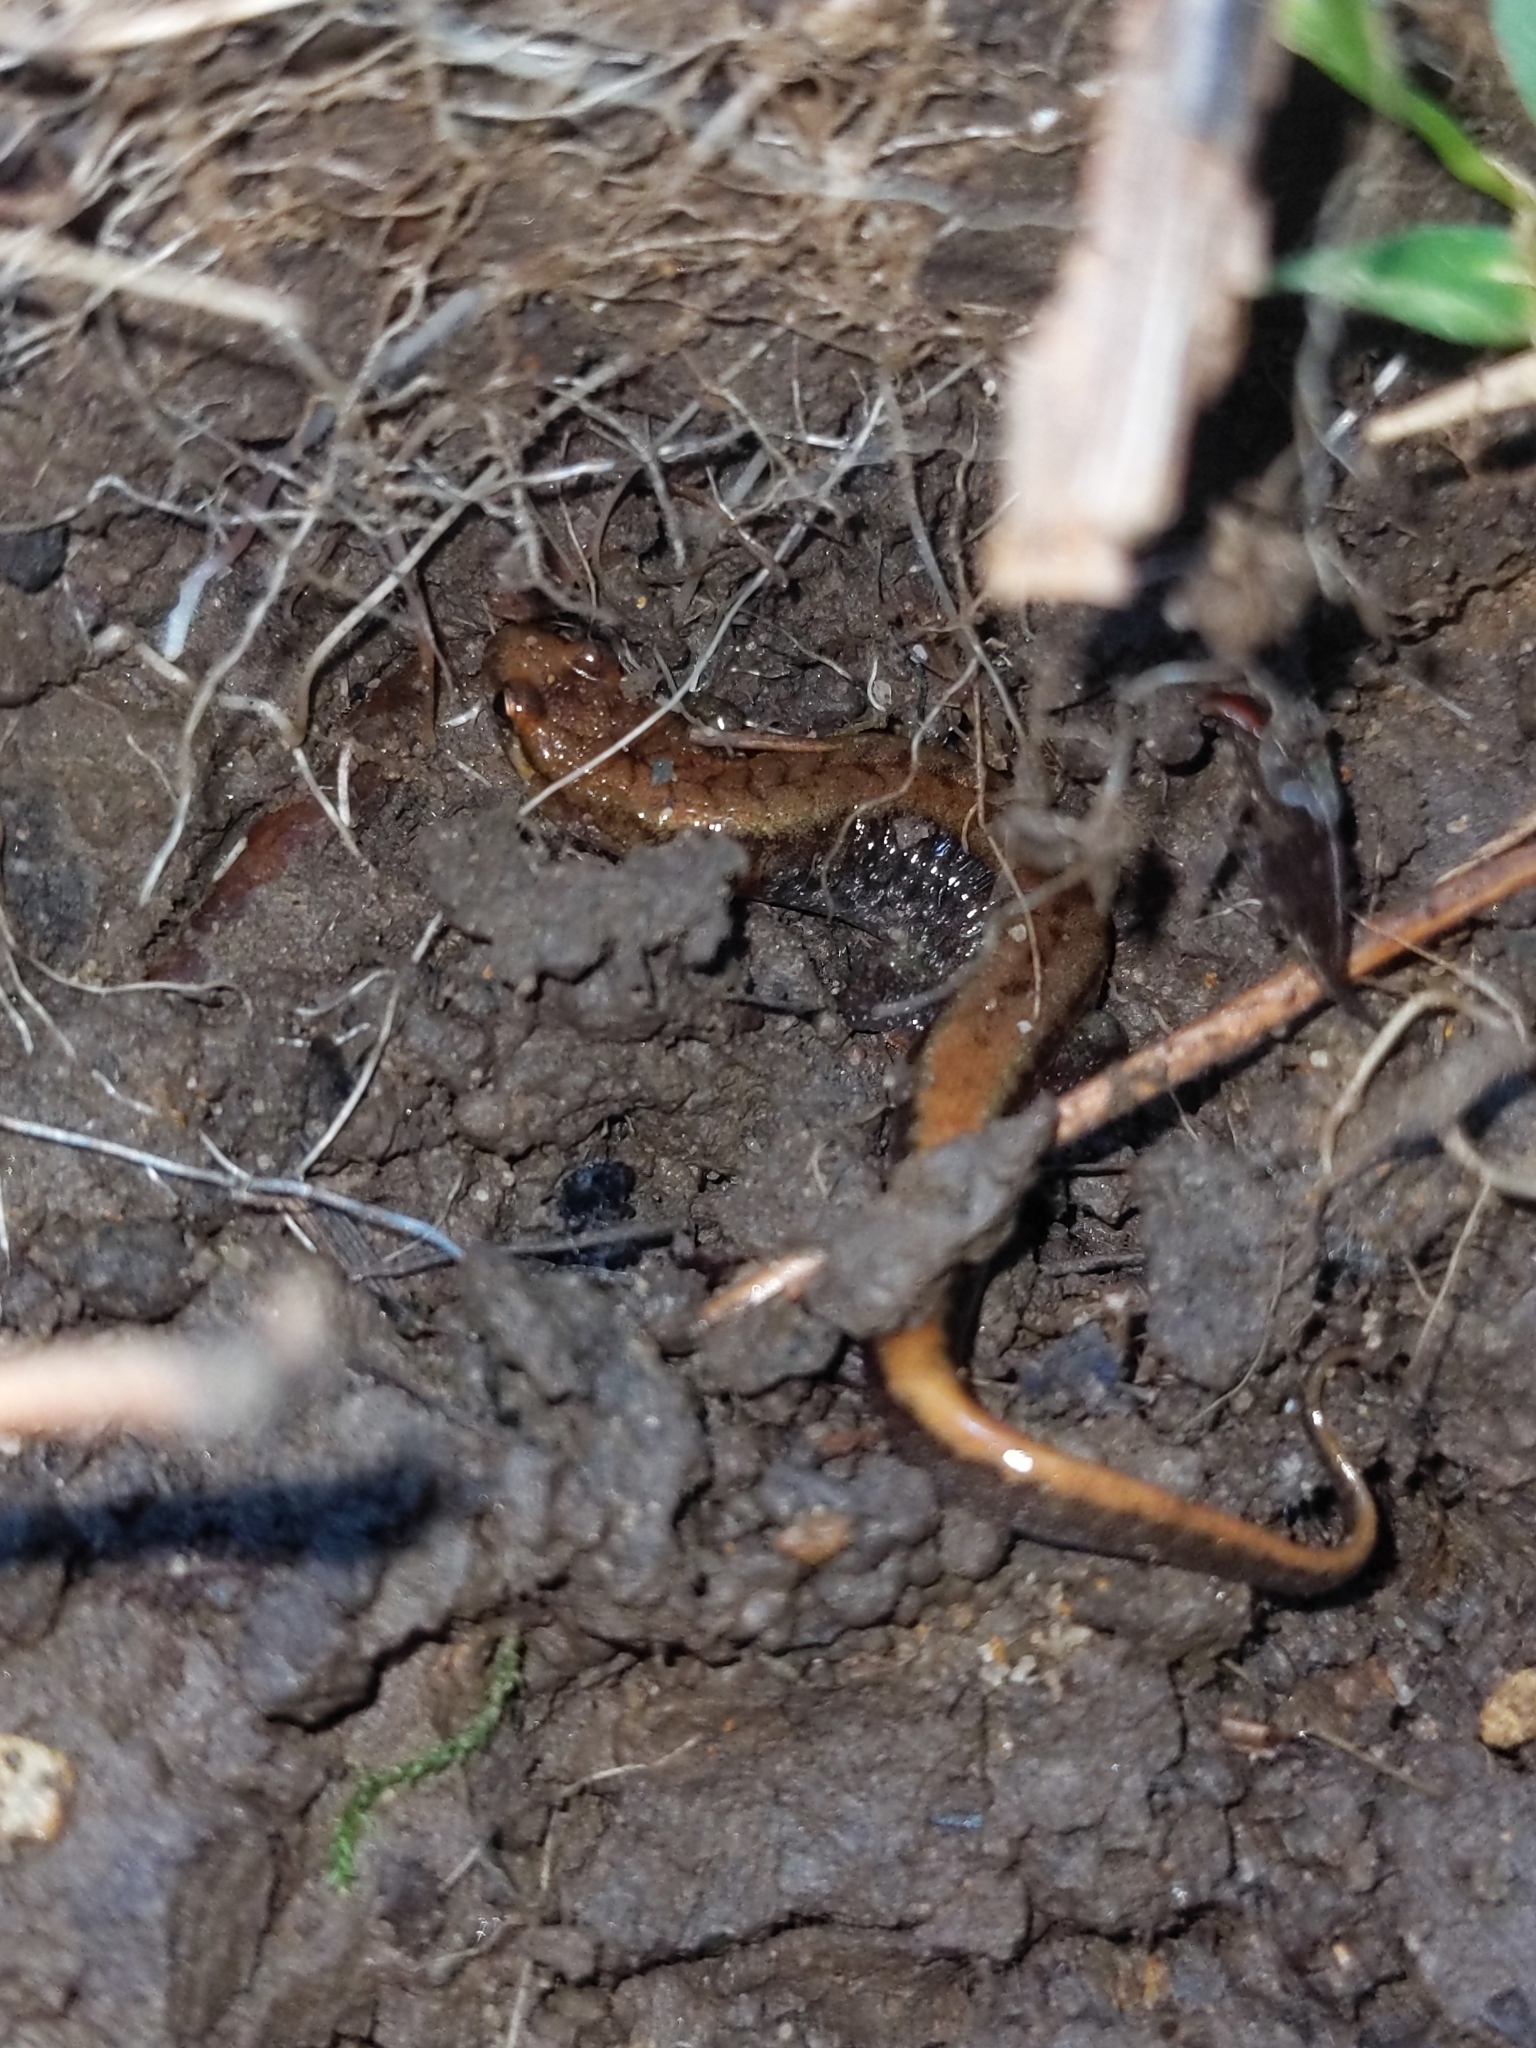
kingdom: Animalia
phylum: Chordata
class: Amphibia
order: Caudata
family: Plethodontidae
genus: Desmognathus
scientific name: Desmognathus ochrophaeus
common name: Allegheny mountain dusky salamander
